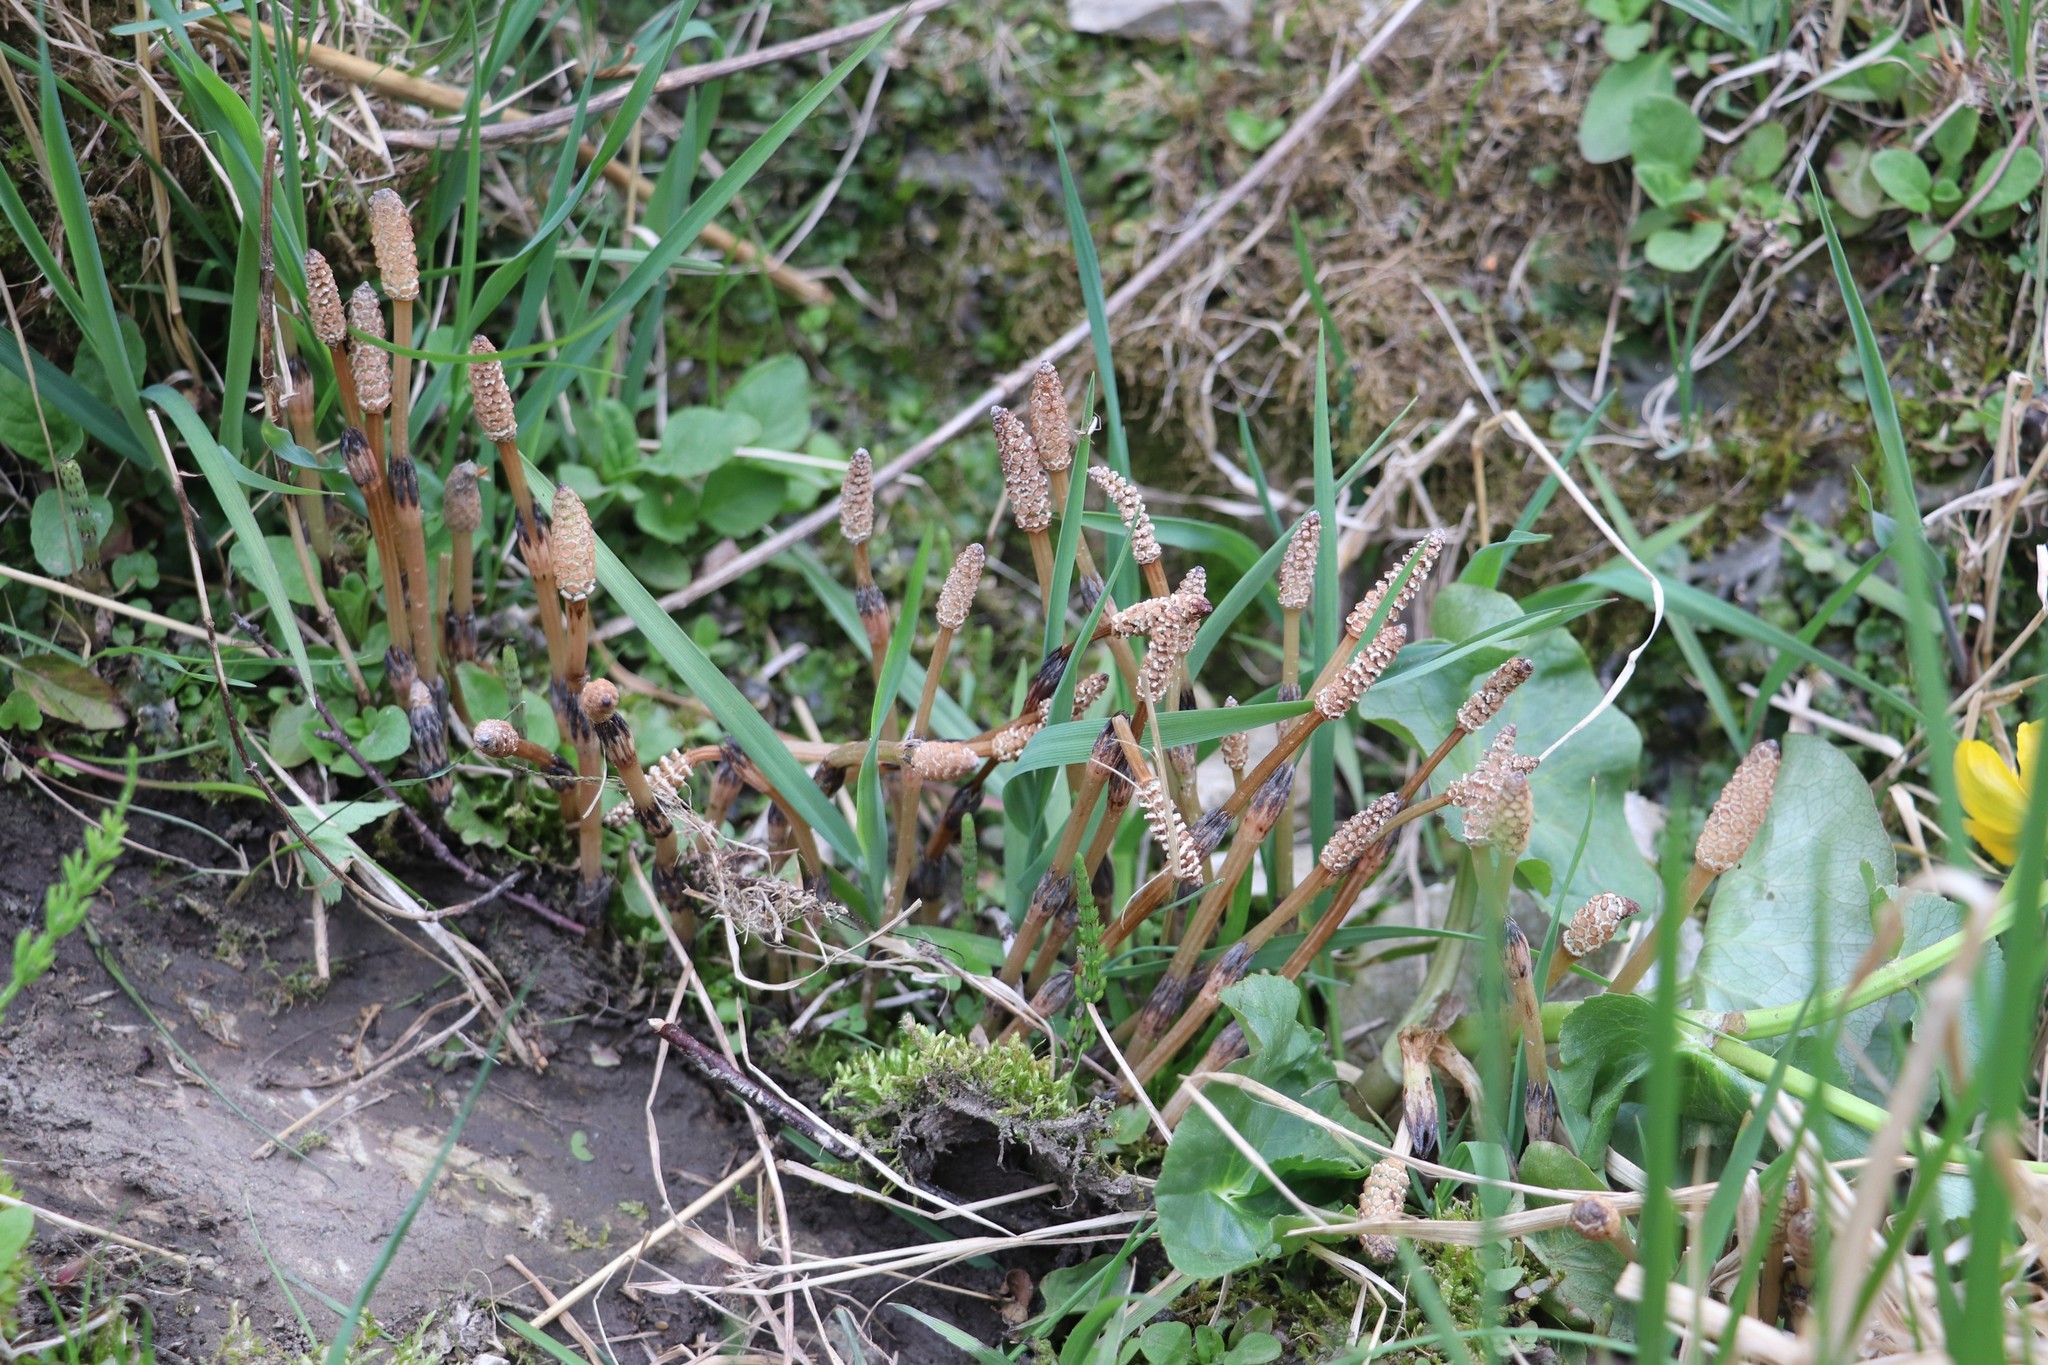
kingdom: Plantae
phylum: Tracheophyta
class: Polypodiopsida
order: Equisetales
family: Equisetaceae
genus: Equisetum
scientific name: Equisetum arvense
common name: Field horsetail
